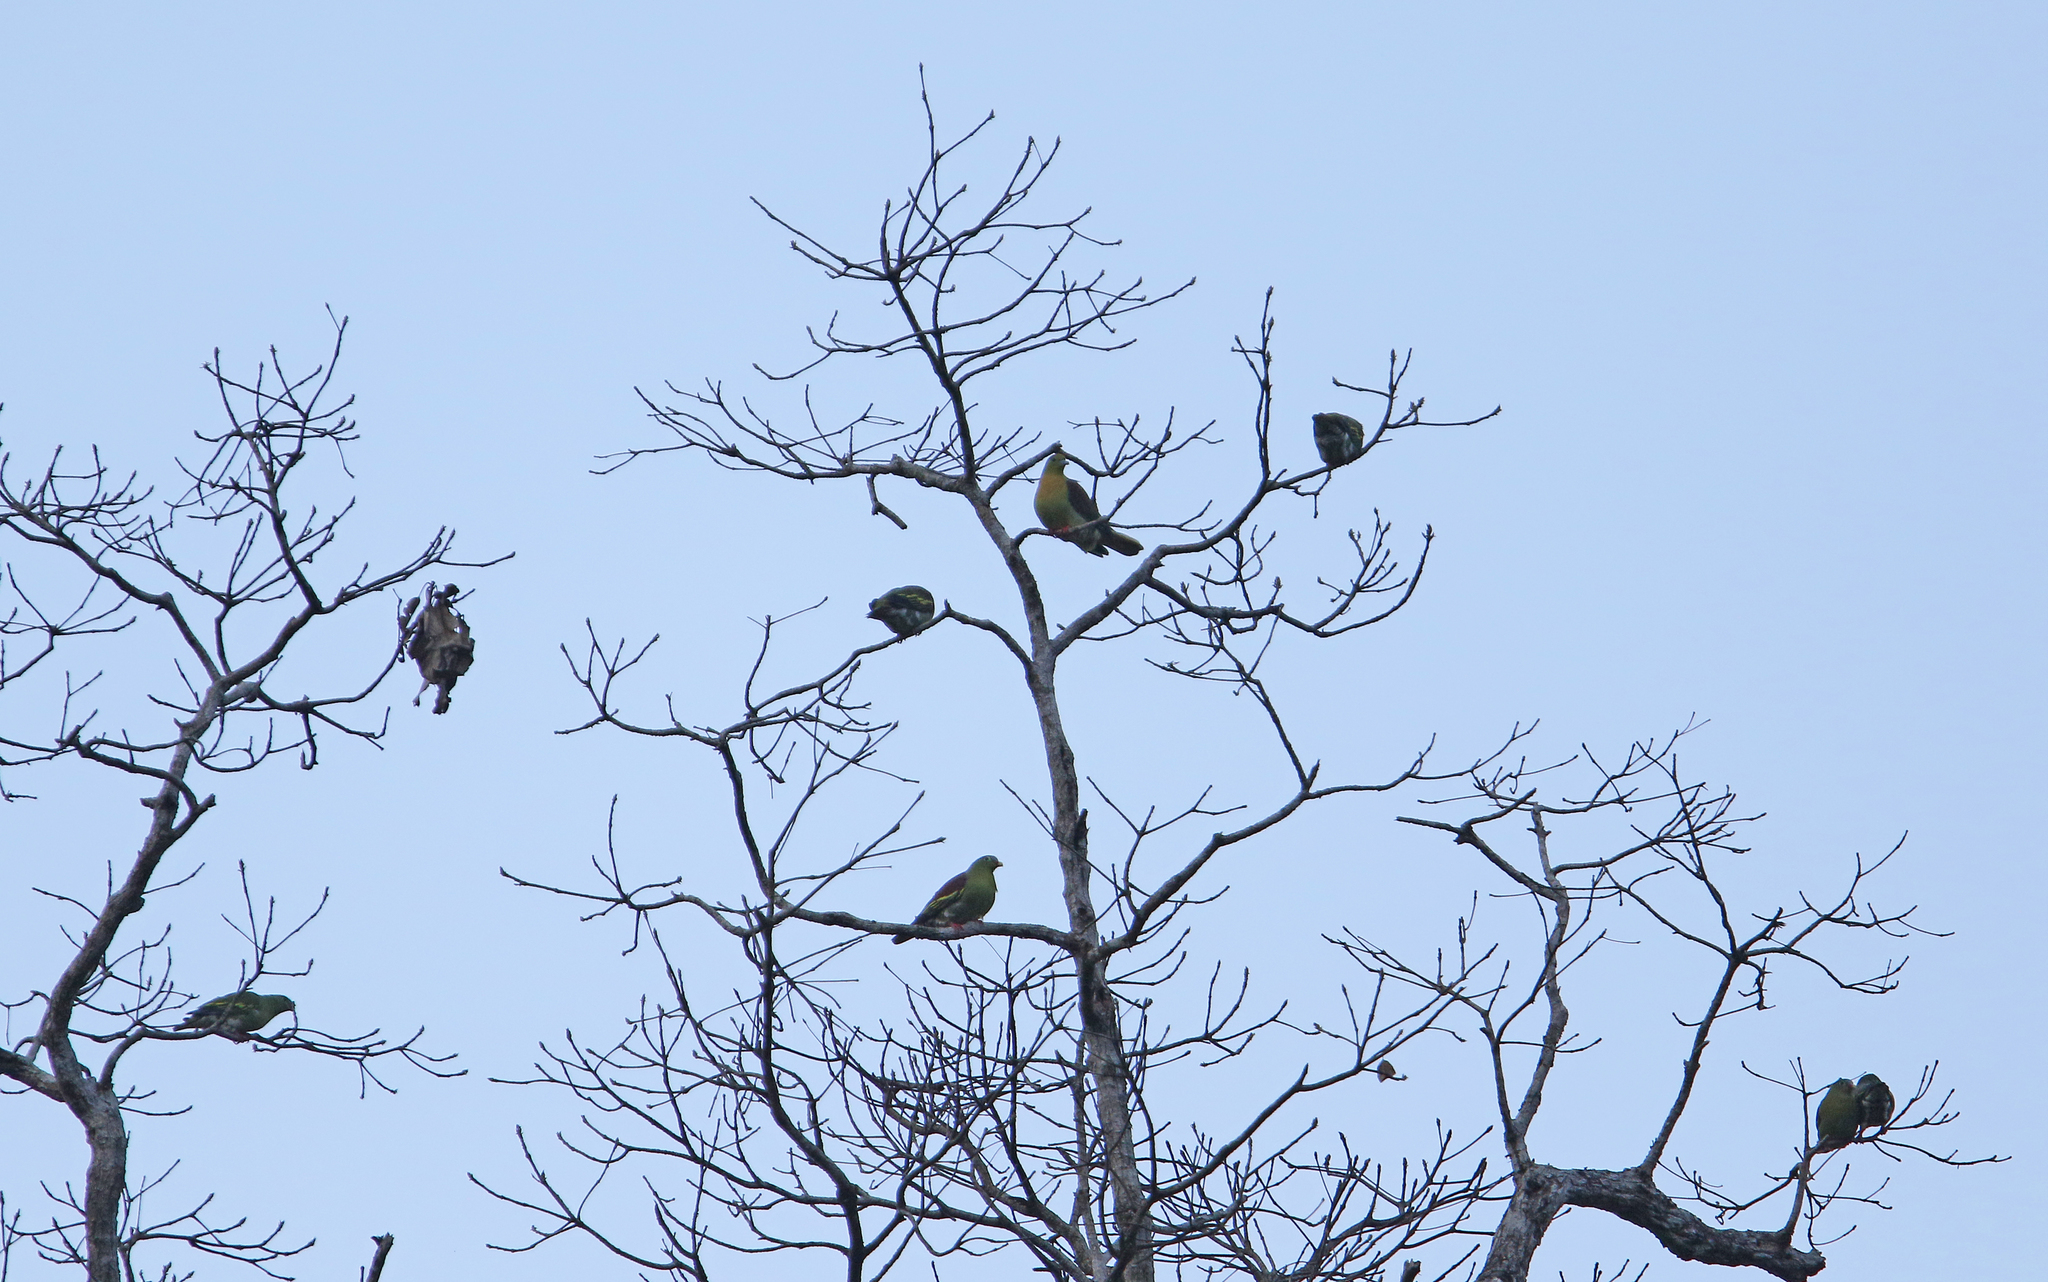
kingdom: Animalia
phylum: Chordata
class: Aves
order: Columbiformes
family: Columbidae
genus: Treron
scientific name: Treron curvirostra
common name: Thick-billed green pigeon
